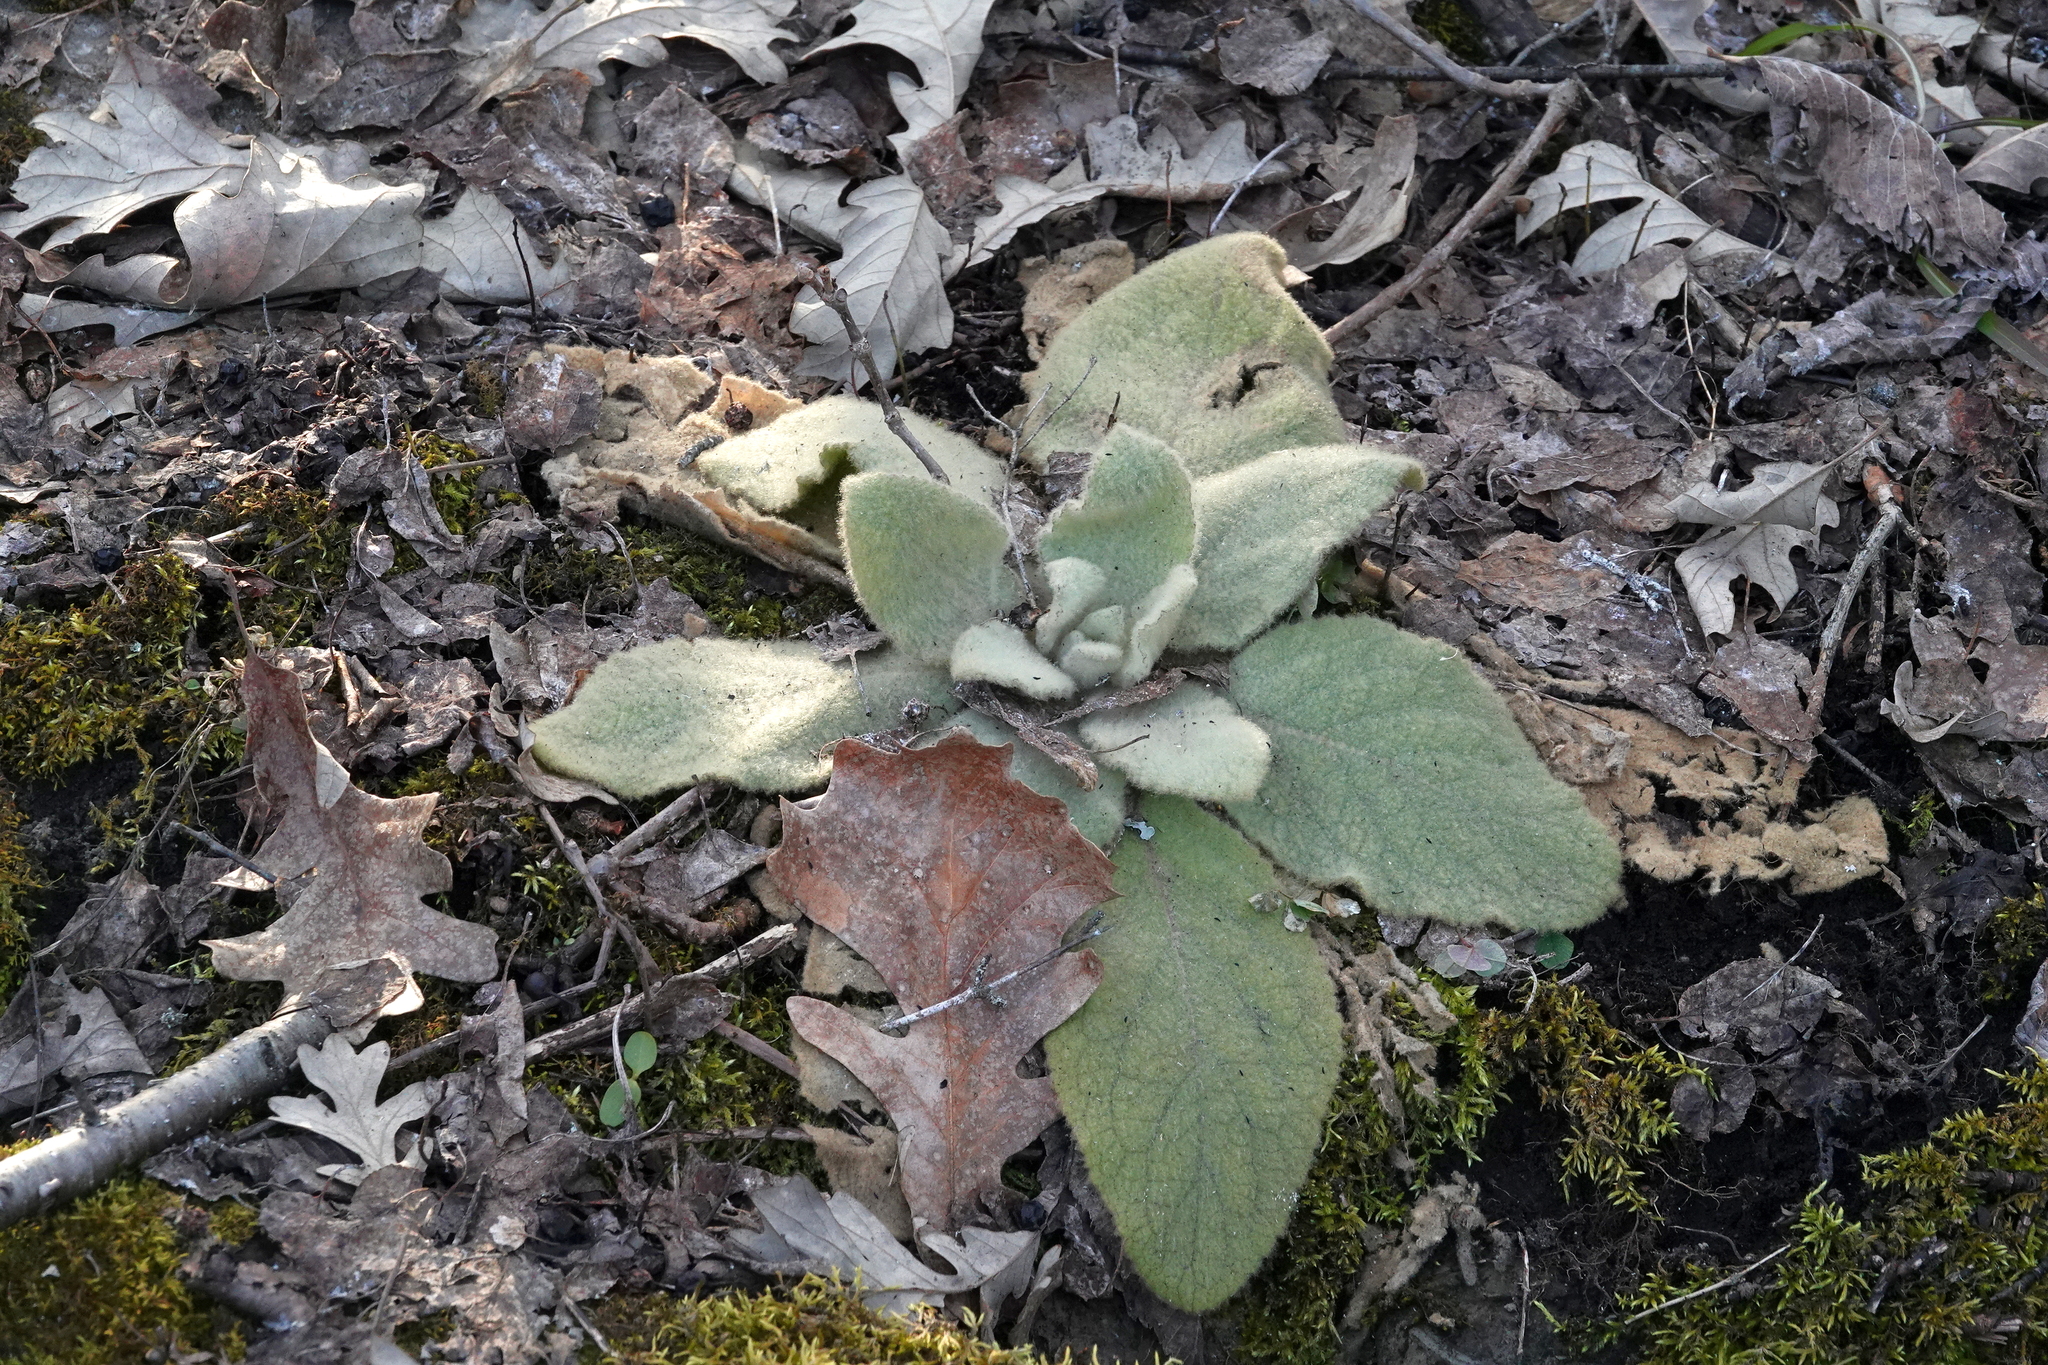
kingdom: Plantae
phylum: Tracheophyta
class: Magnoliopsida
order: Lamiales
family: Scrophulariaceae
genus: Verbascum
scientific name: Verbascum thapsus
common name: Common mullein
